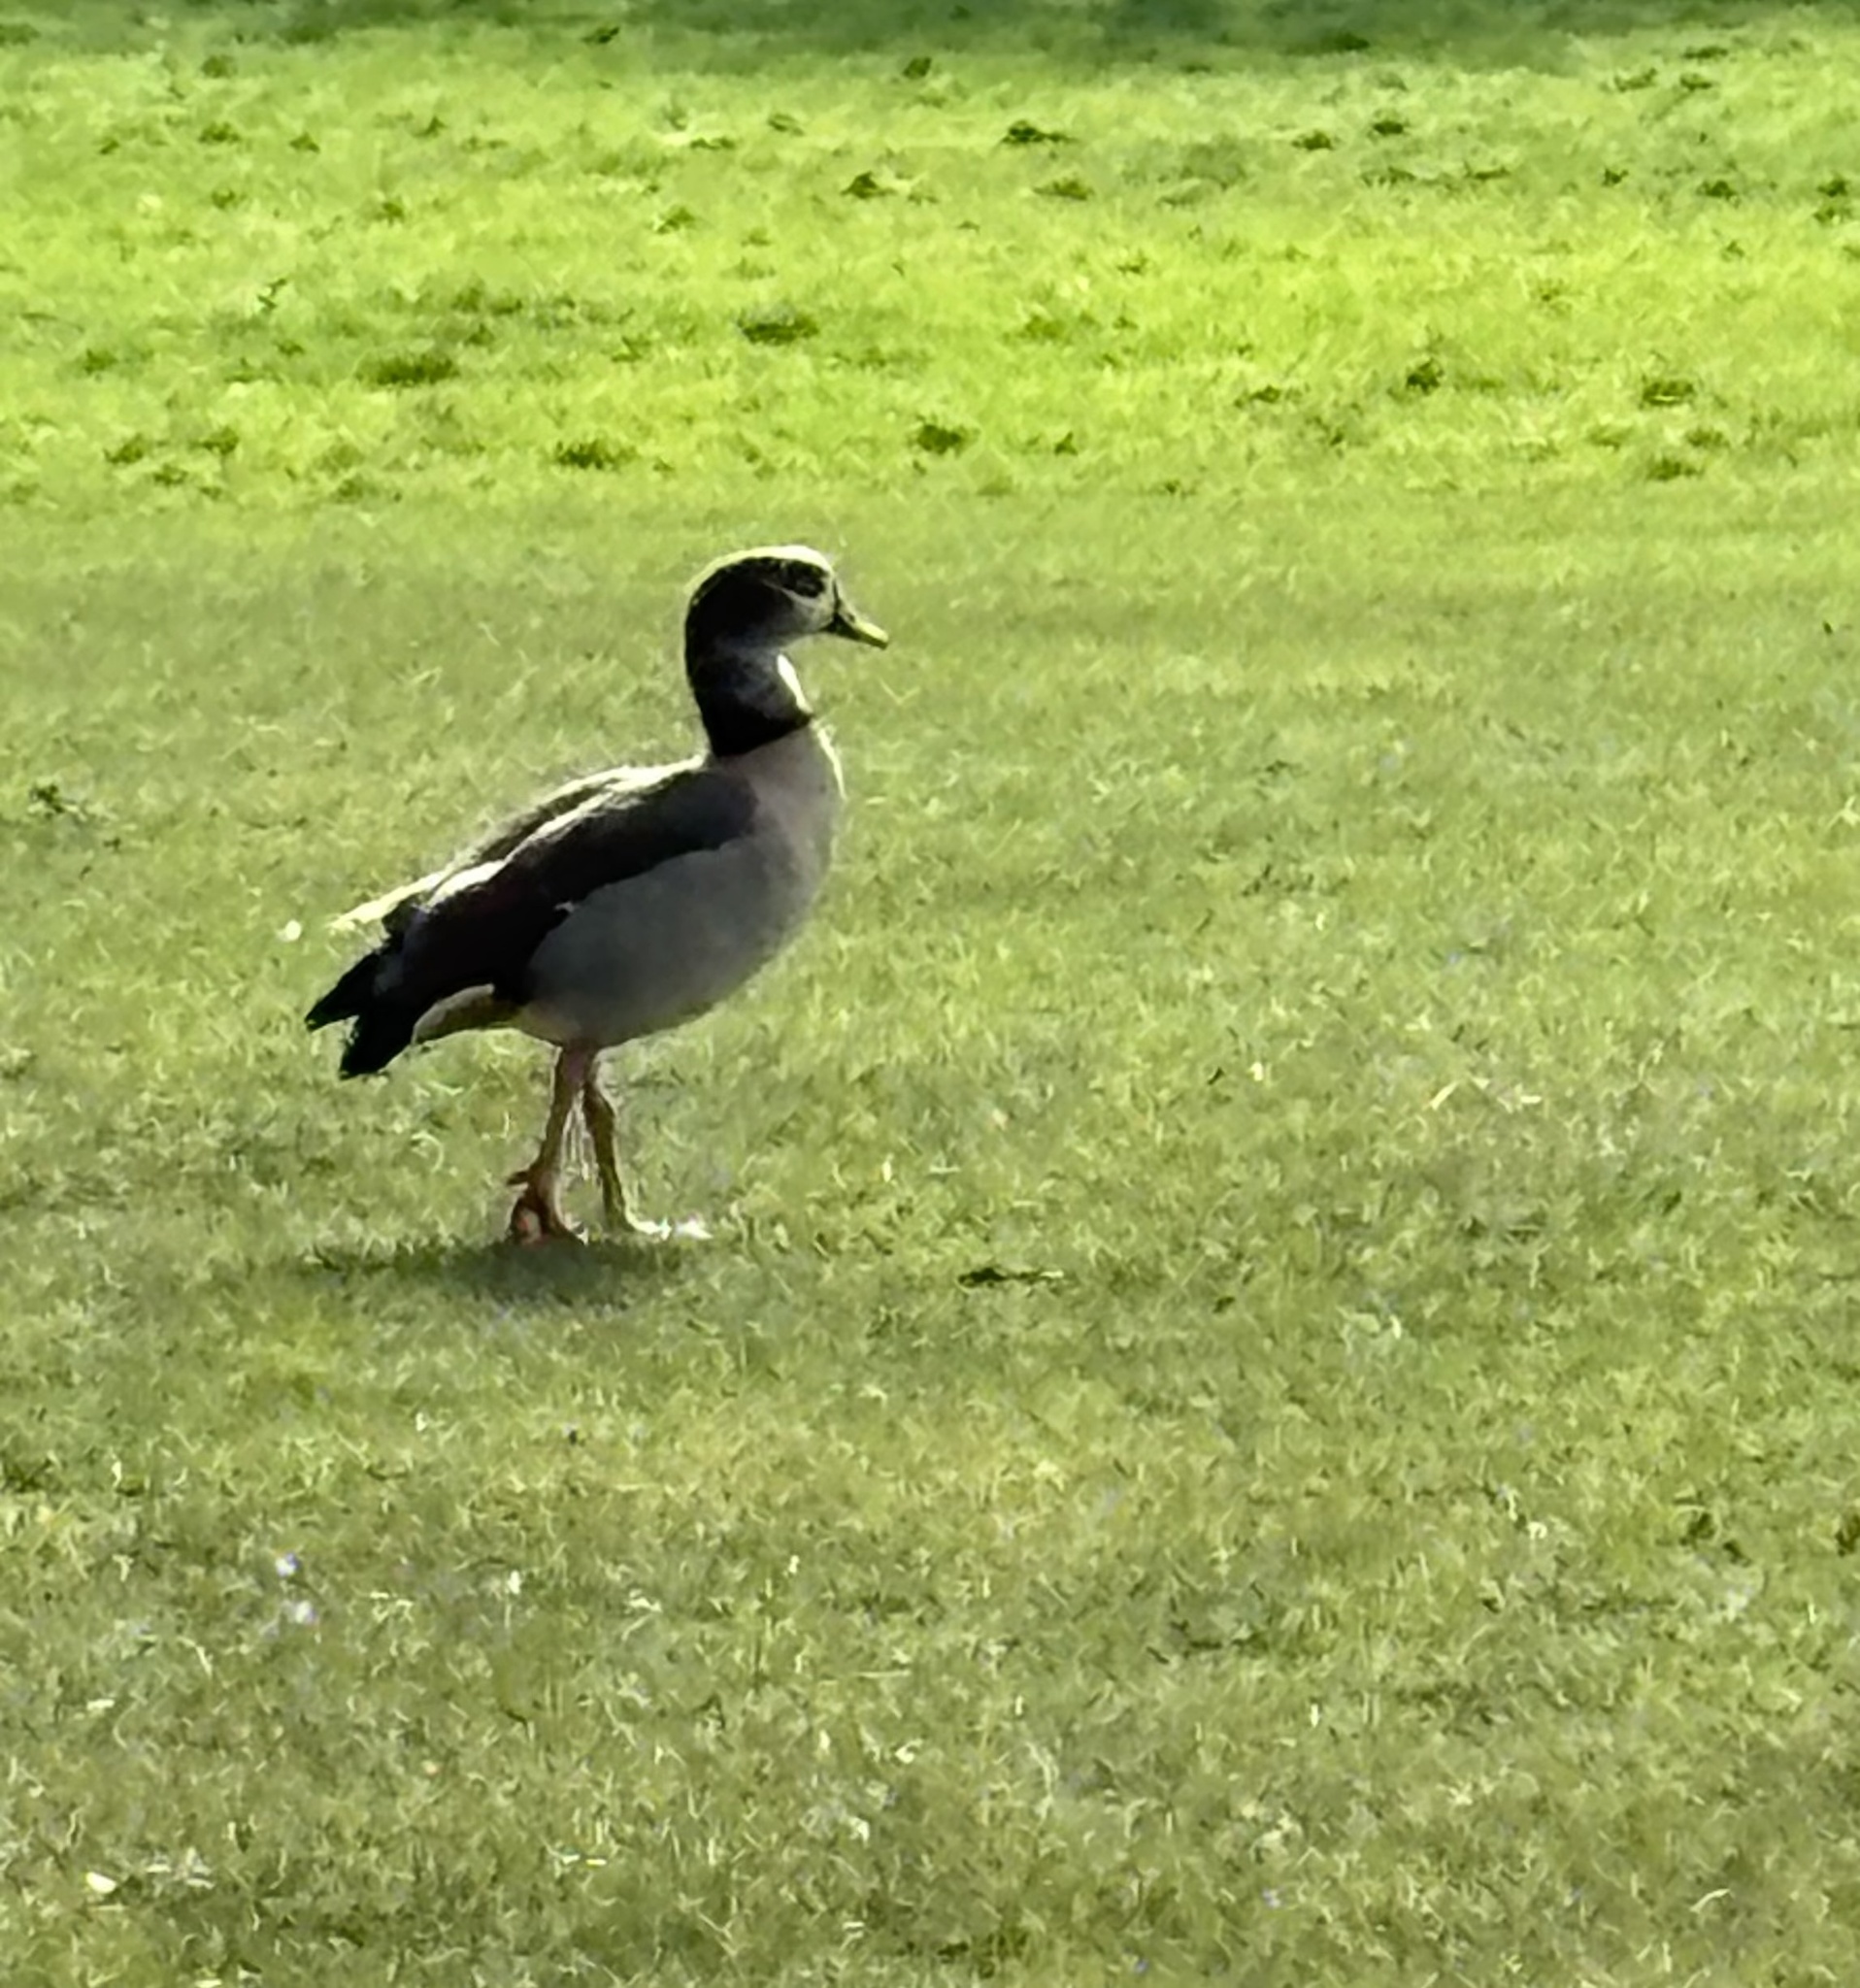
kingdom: Animalia
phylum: Chordata
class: Aves
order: Anseriformes
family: Anatidae
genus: Alopochen
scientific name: Alopochen aegyptiaca
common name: Egyptian goose
